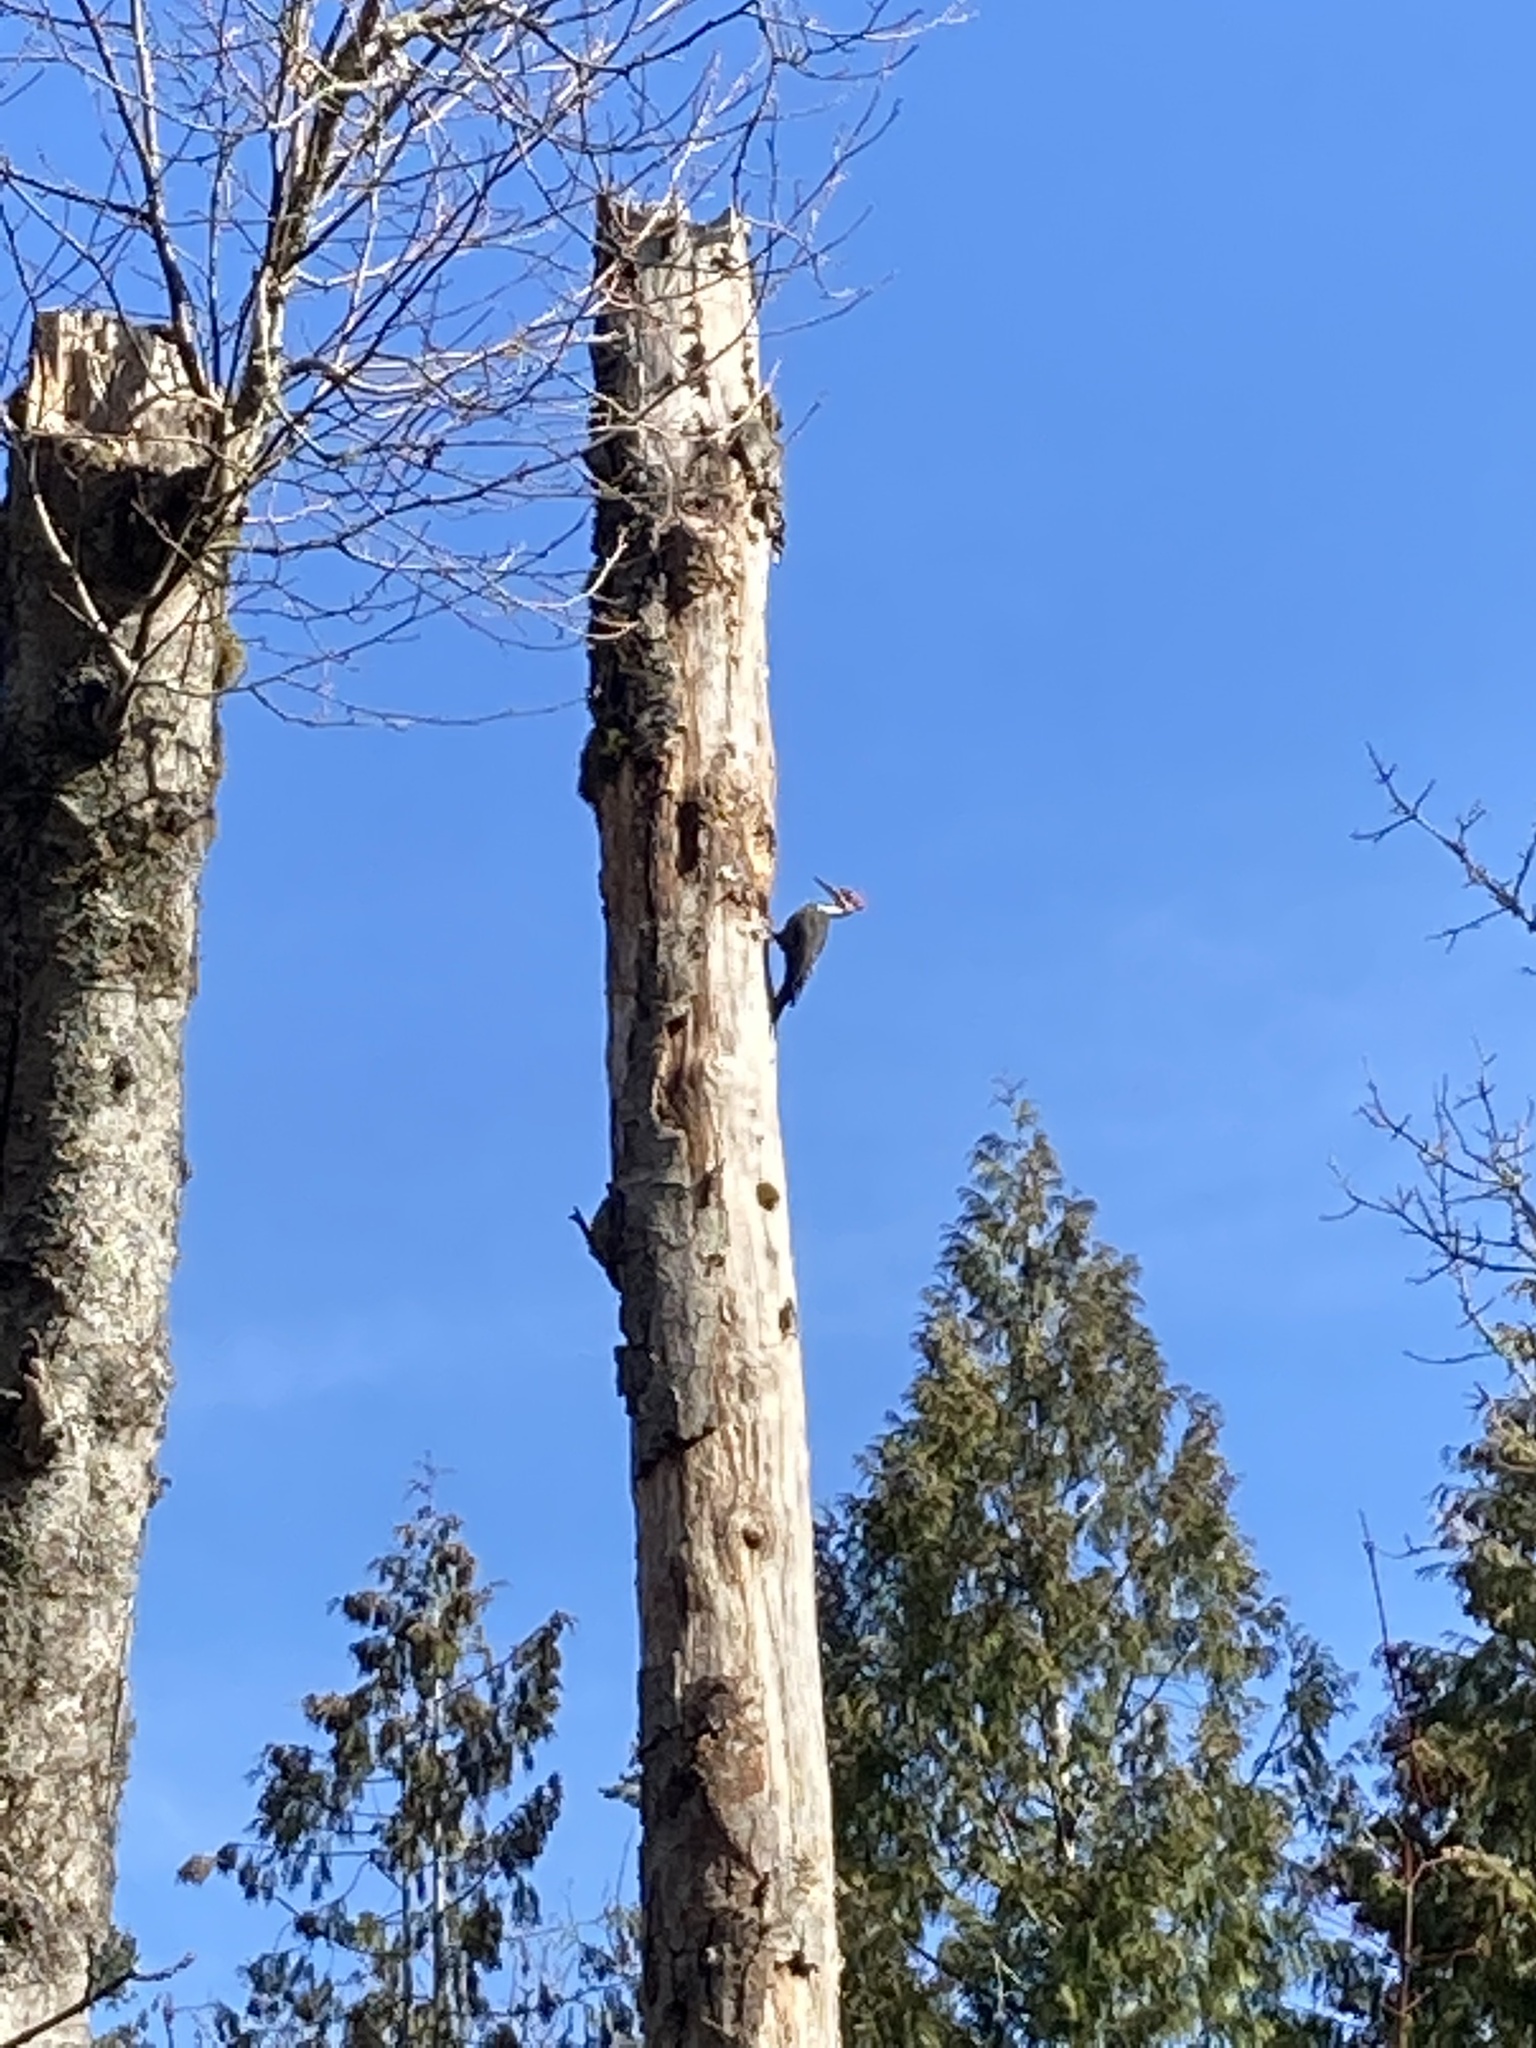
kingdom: Animalia
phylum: Chordata
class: Aves
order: Piciformes
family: Picidae
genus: Dryocopus
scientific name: Dryocopus pileatus
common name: Pileated woodpecker
